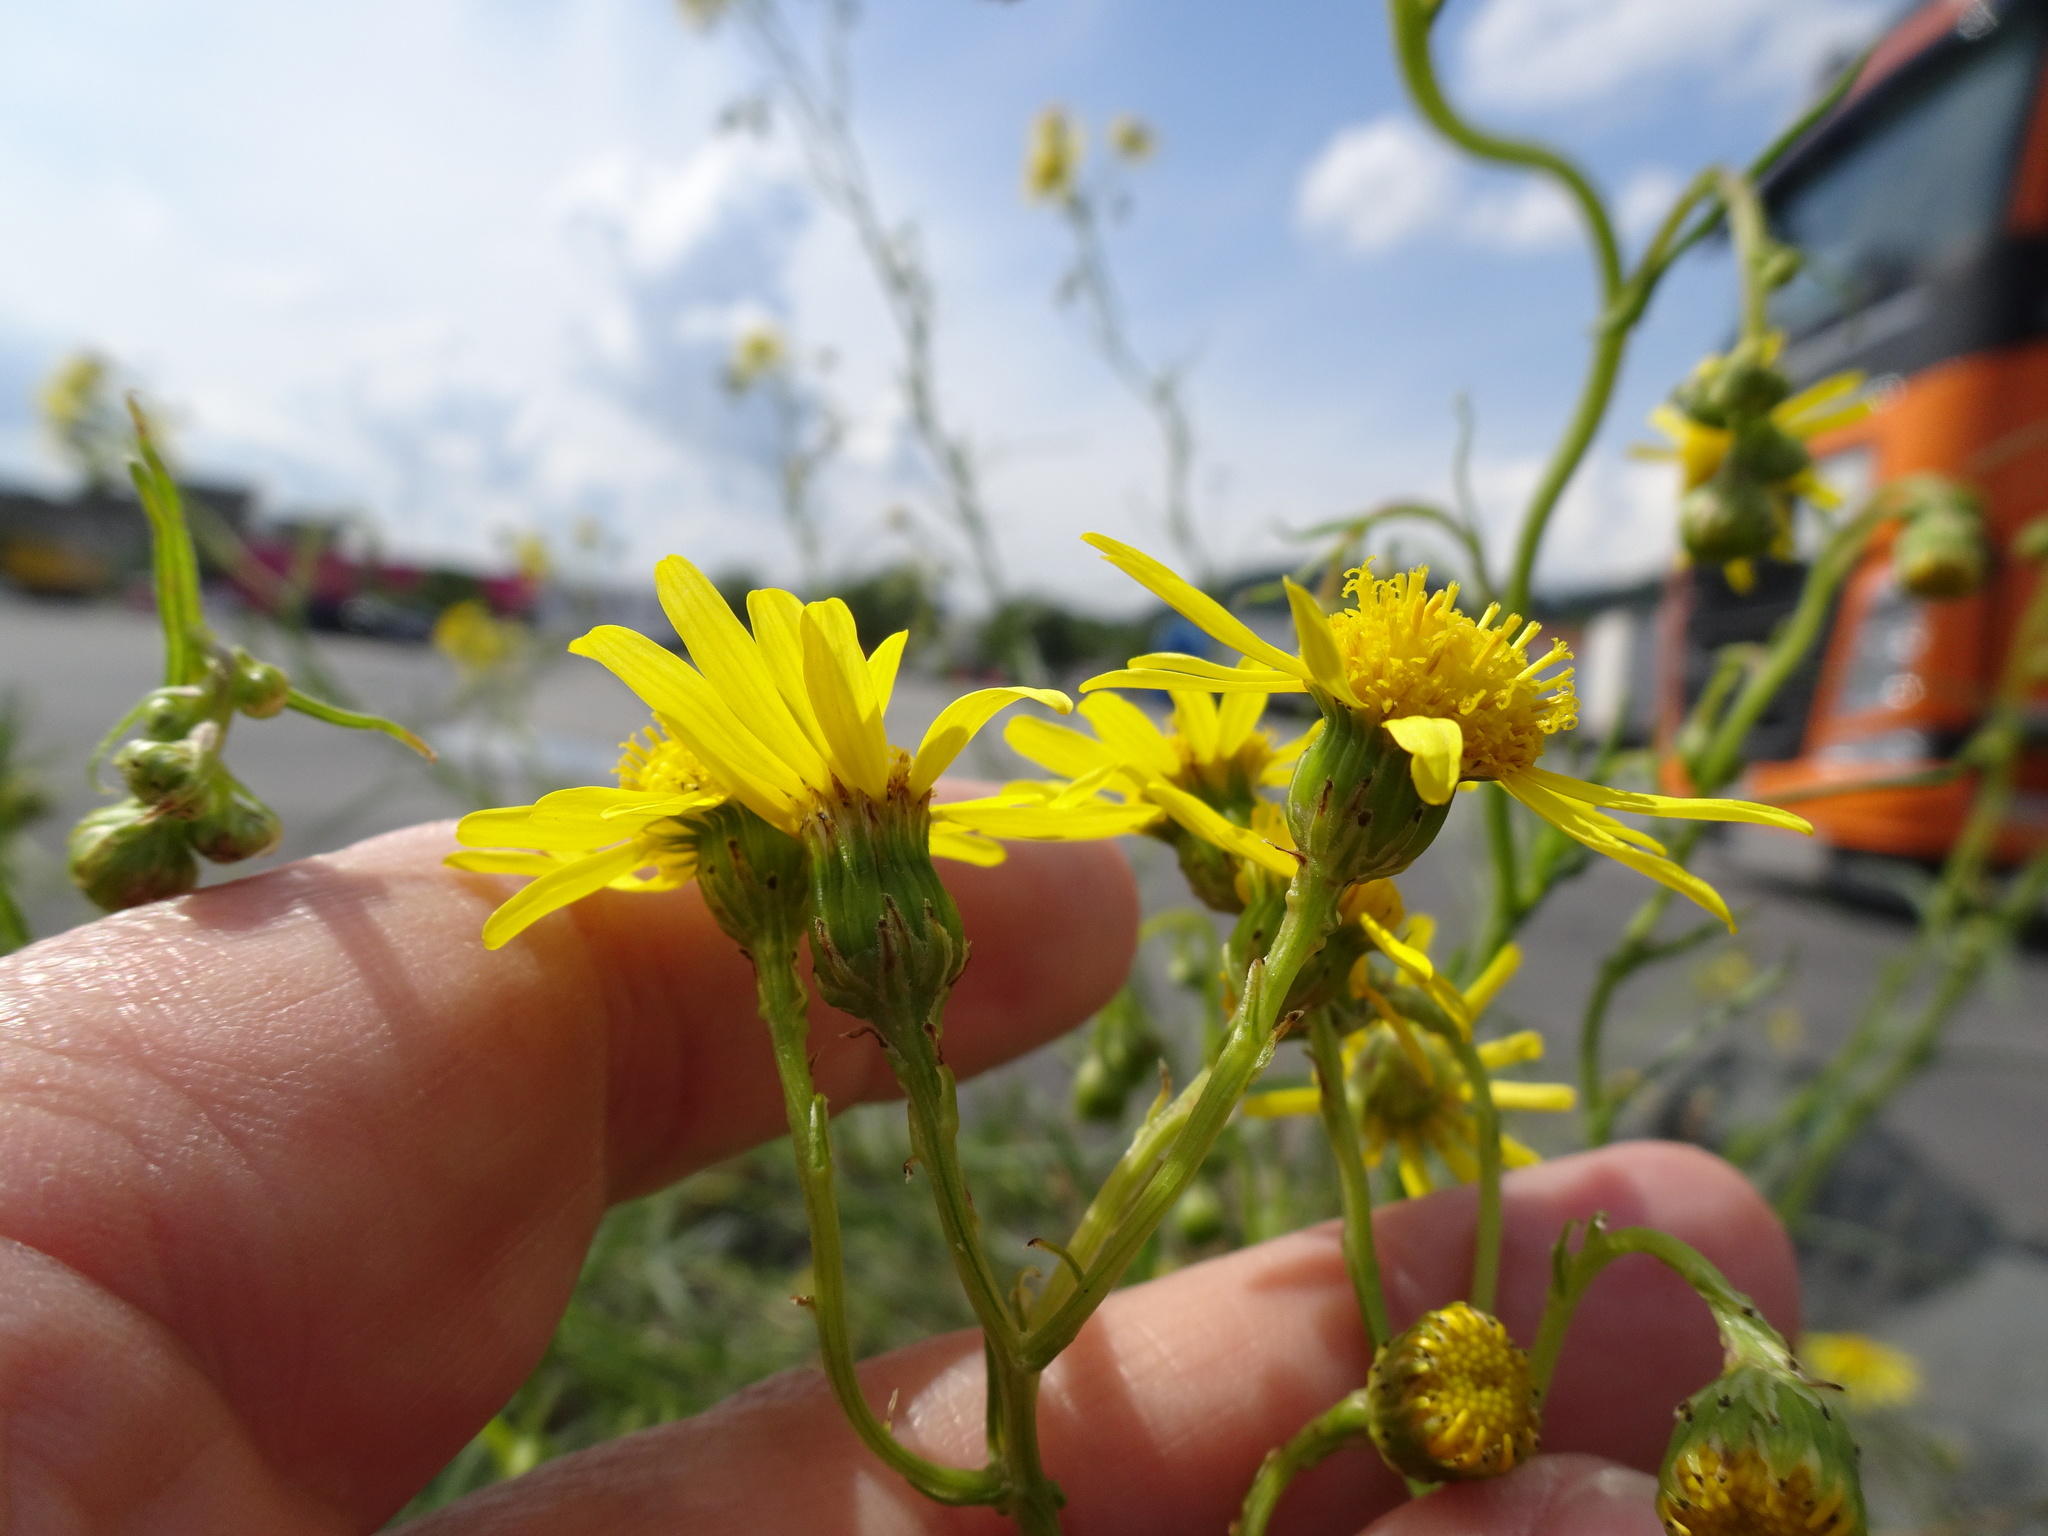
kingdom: Plantae
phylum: Tracheophyta
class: Magnoliopsida
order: Asterales
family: Asteraceae
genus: Senecio
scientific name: Senecio inaequidens
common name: Narrow-leaved ragwort
